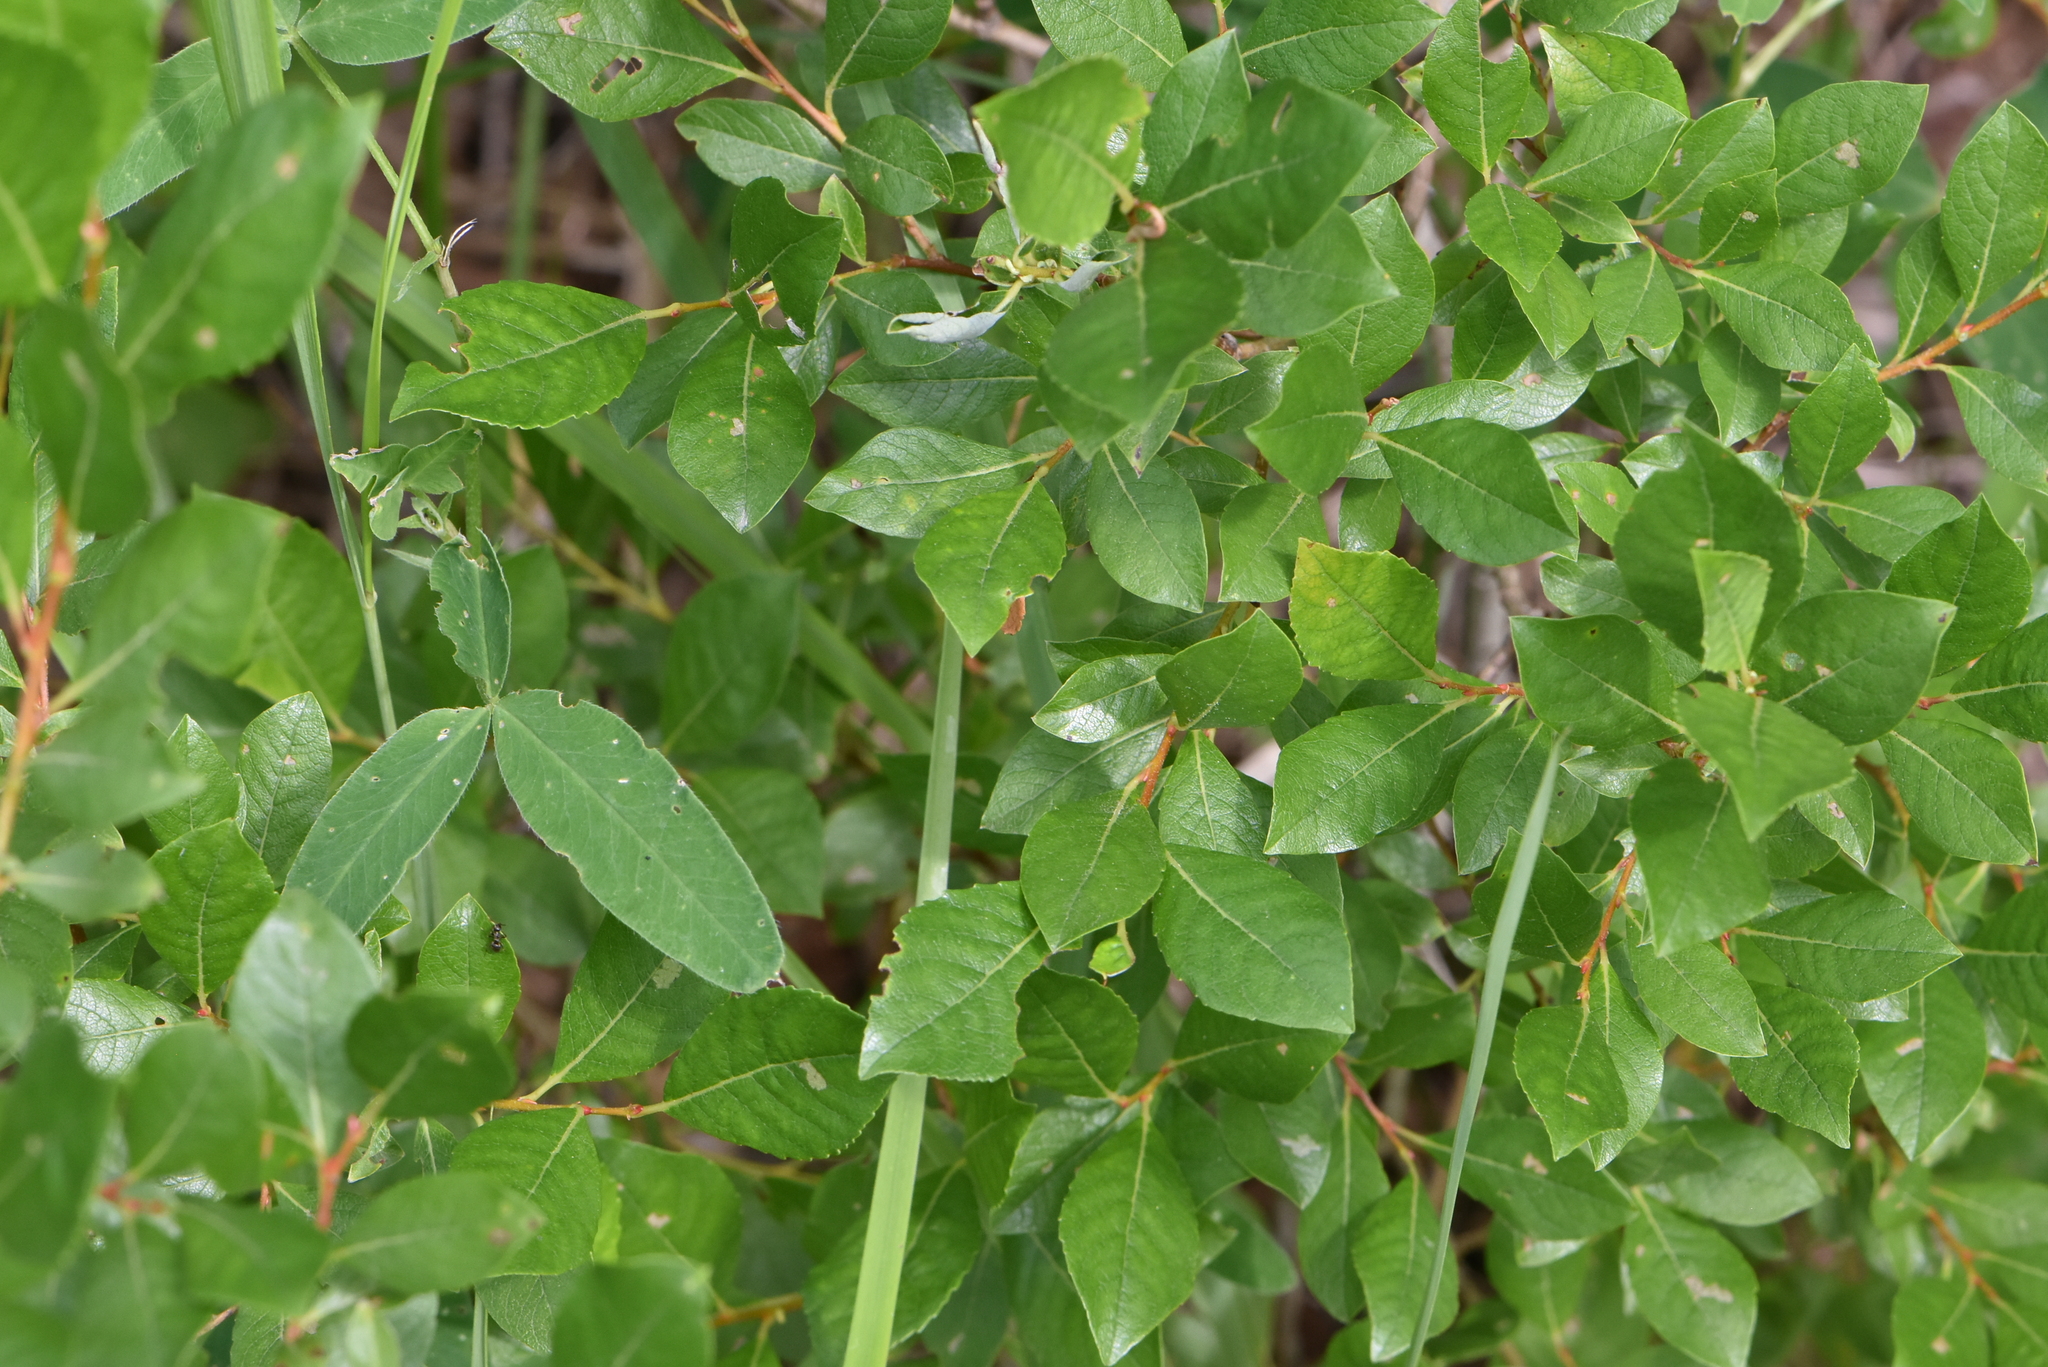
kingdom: Plantae
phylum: Tracheophyta
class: Magnoliopsida
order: Malpighiales
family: Salicaceae
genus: Salix
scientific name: Salix myrsinifolia
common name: Dark-leaved willow
